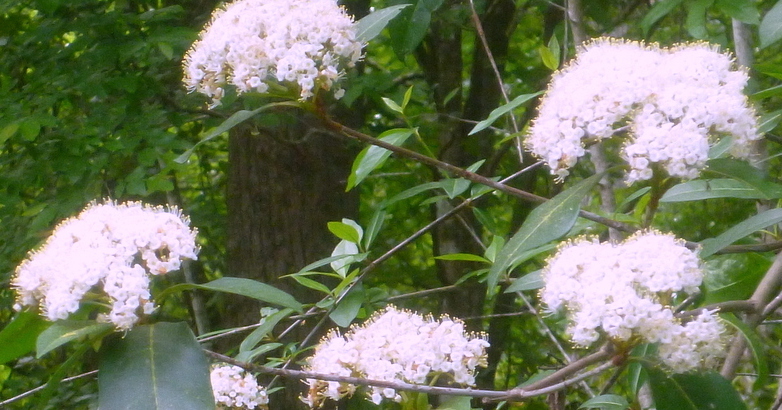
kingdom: Plantae
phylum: Tracheophyta
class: Magnoliopsida
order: Dipsacales
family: Viburnaceae
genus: Viburnum
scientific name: Viburnum nudum
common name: Possum haw
